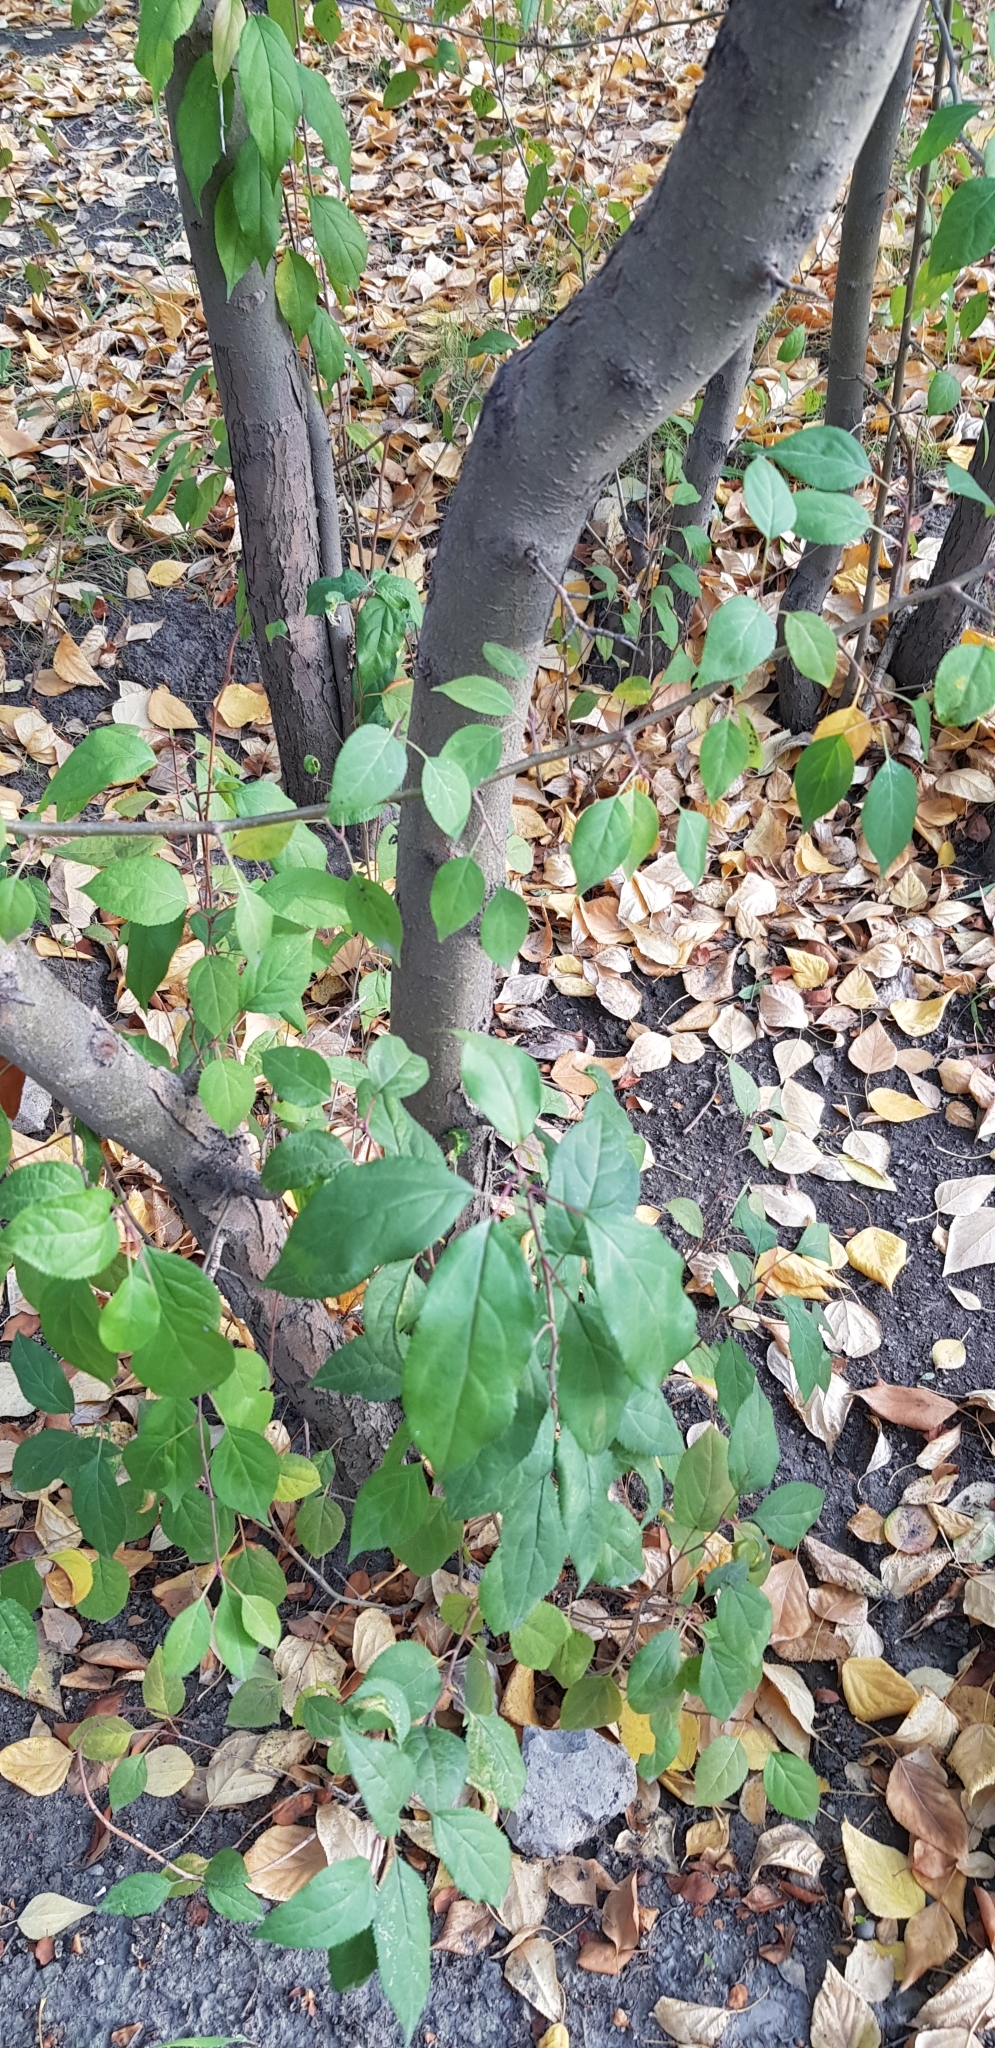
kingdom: Plantae
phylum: Tracheophyta
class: Magnoliopsida
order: Rosales
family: Rosaceae
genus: Malus
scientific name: Malus baccata
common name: Siberian crab
